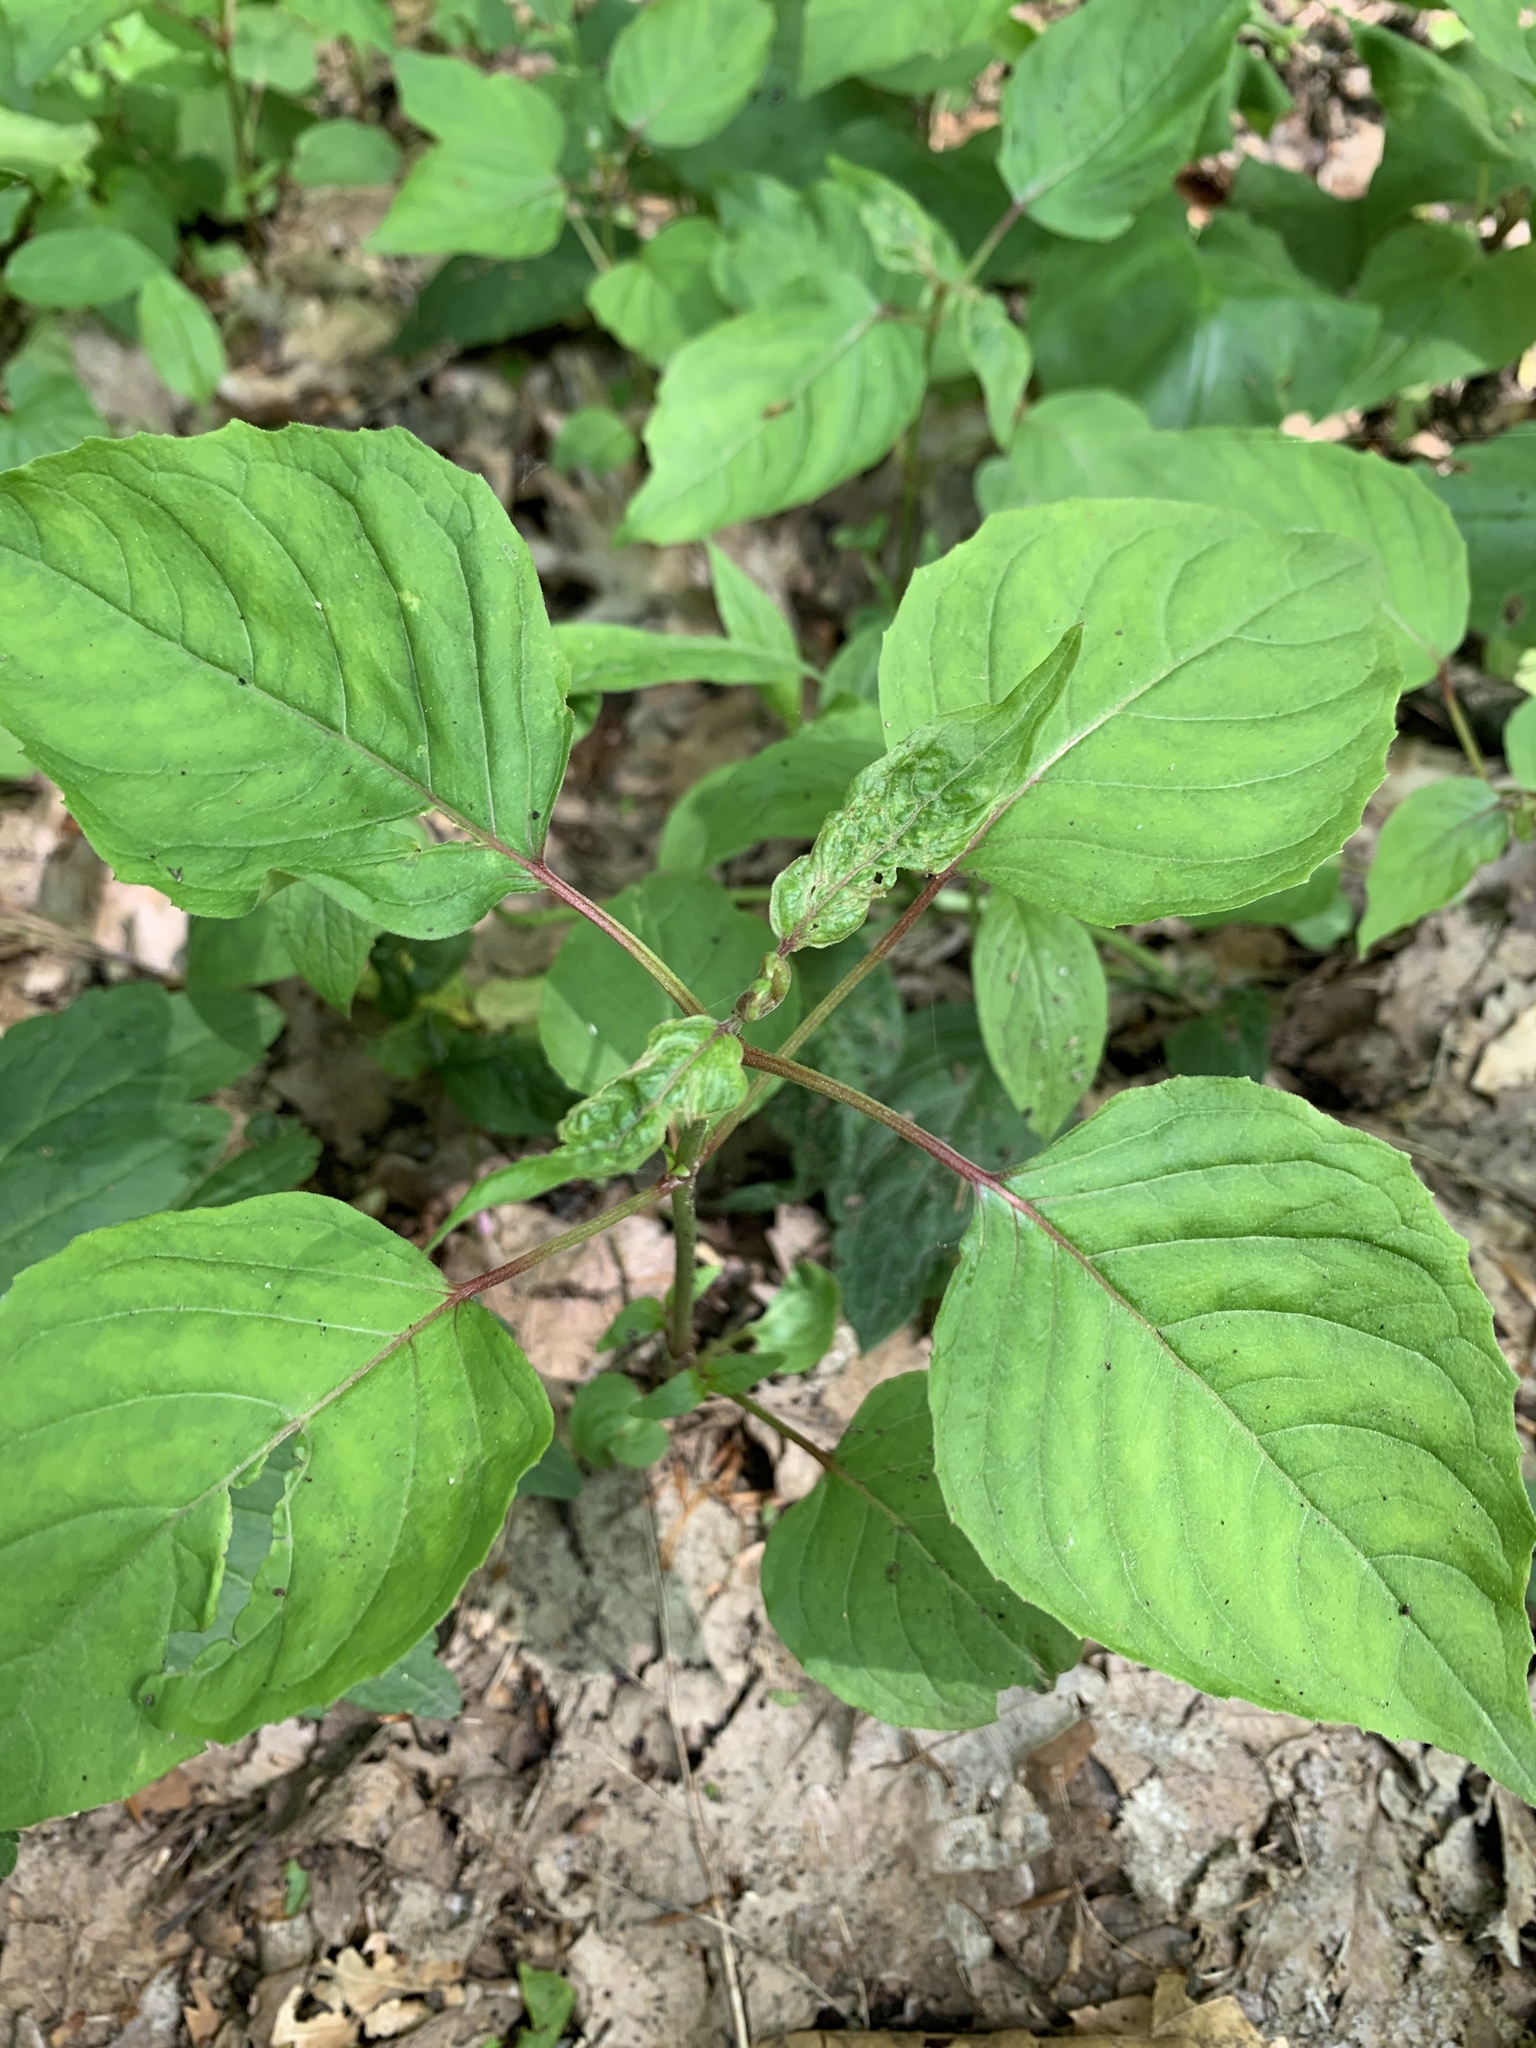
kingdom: Plantae
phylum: Tracheophyta
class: Magnoliopsida
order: Myrtales
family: Onagraceae
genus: Circaea
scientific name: Circaea lutetiana
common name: Enchanter's-nightshade
